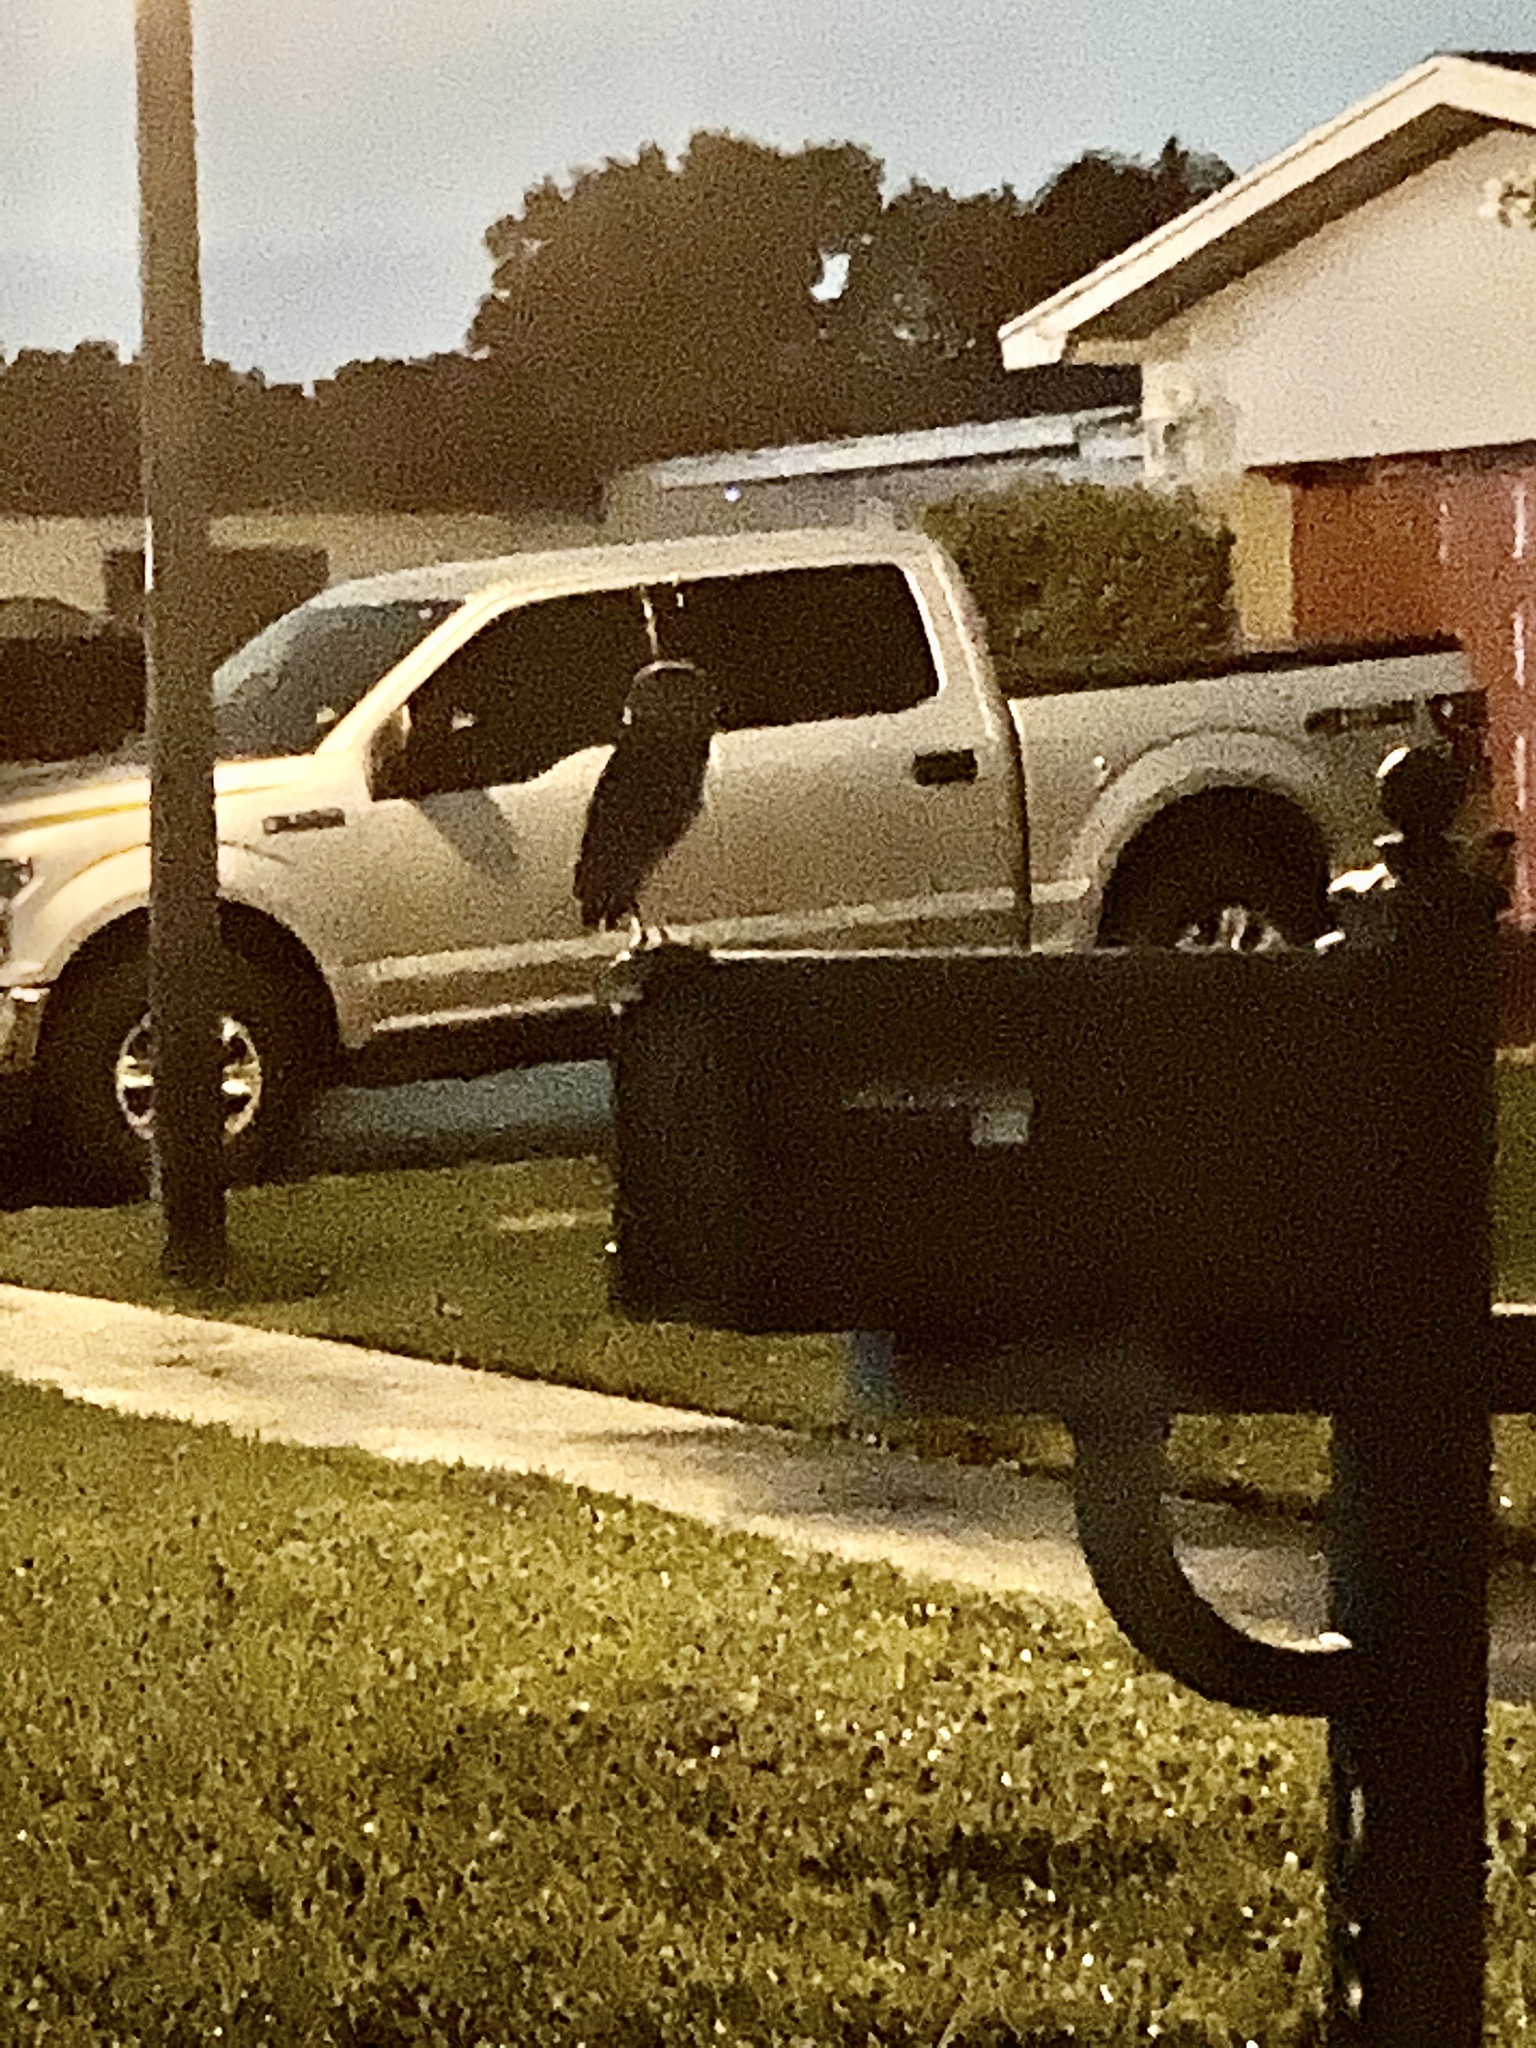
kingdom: Animalia
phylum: Chordata
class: Aves
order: Strigiformes
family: Strigidae
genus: Athene
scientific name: Athene cunicularia
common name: Burrowing owl
